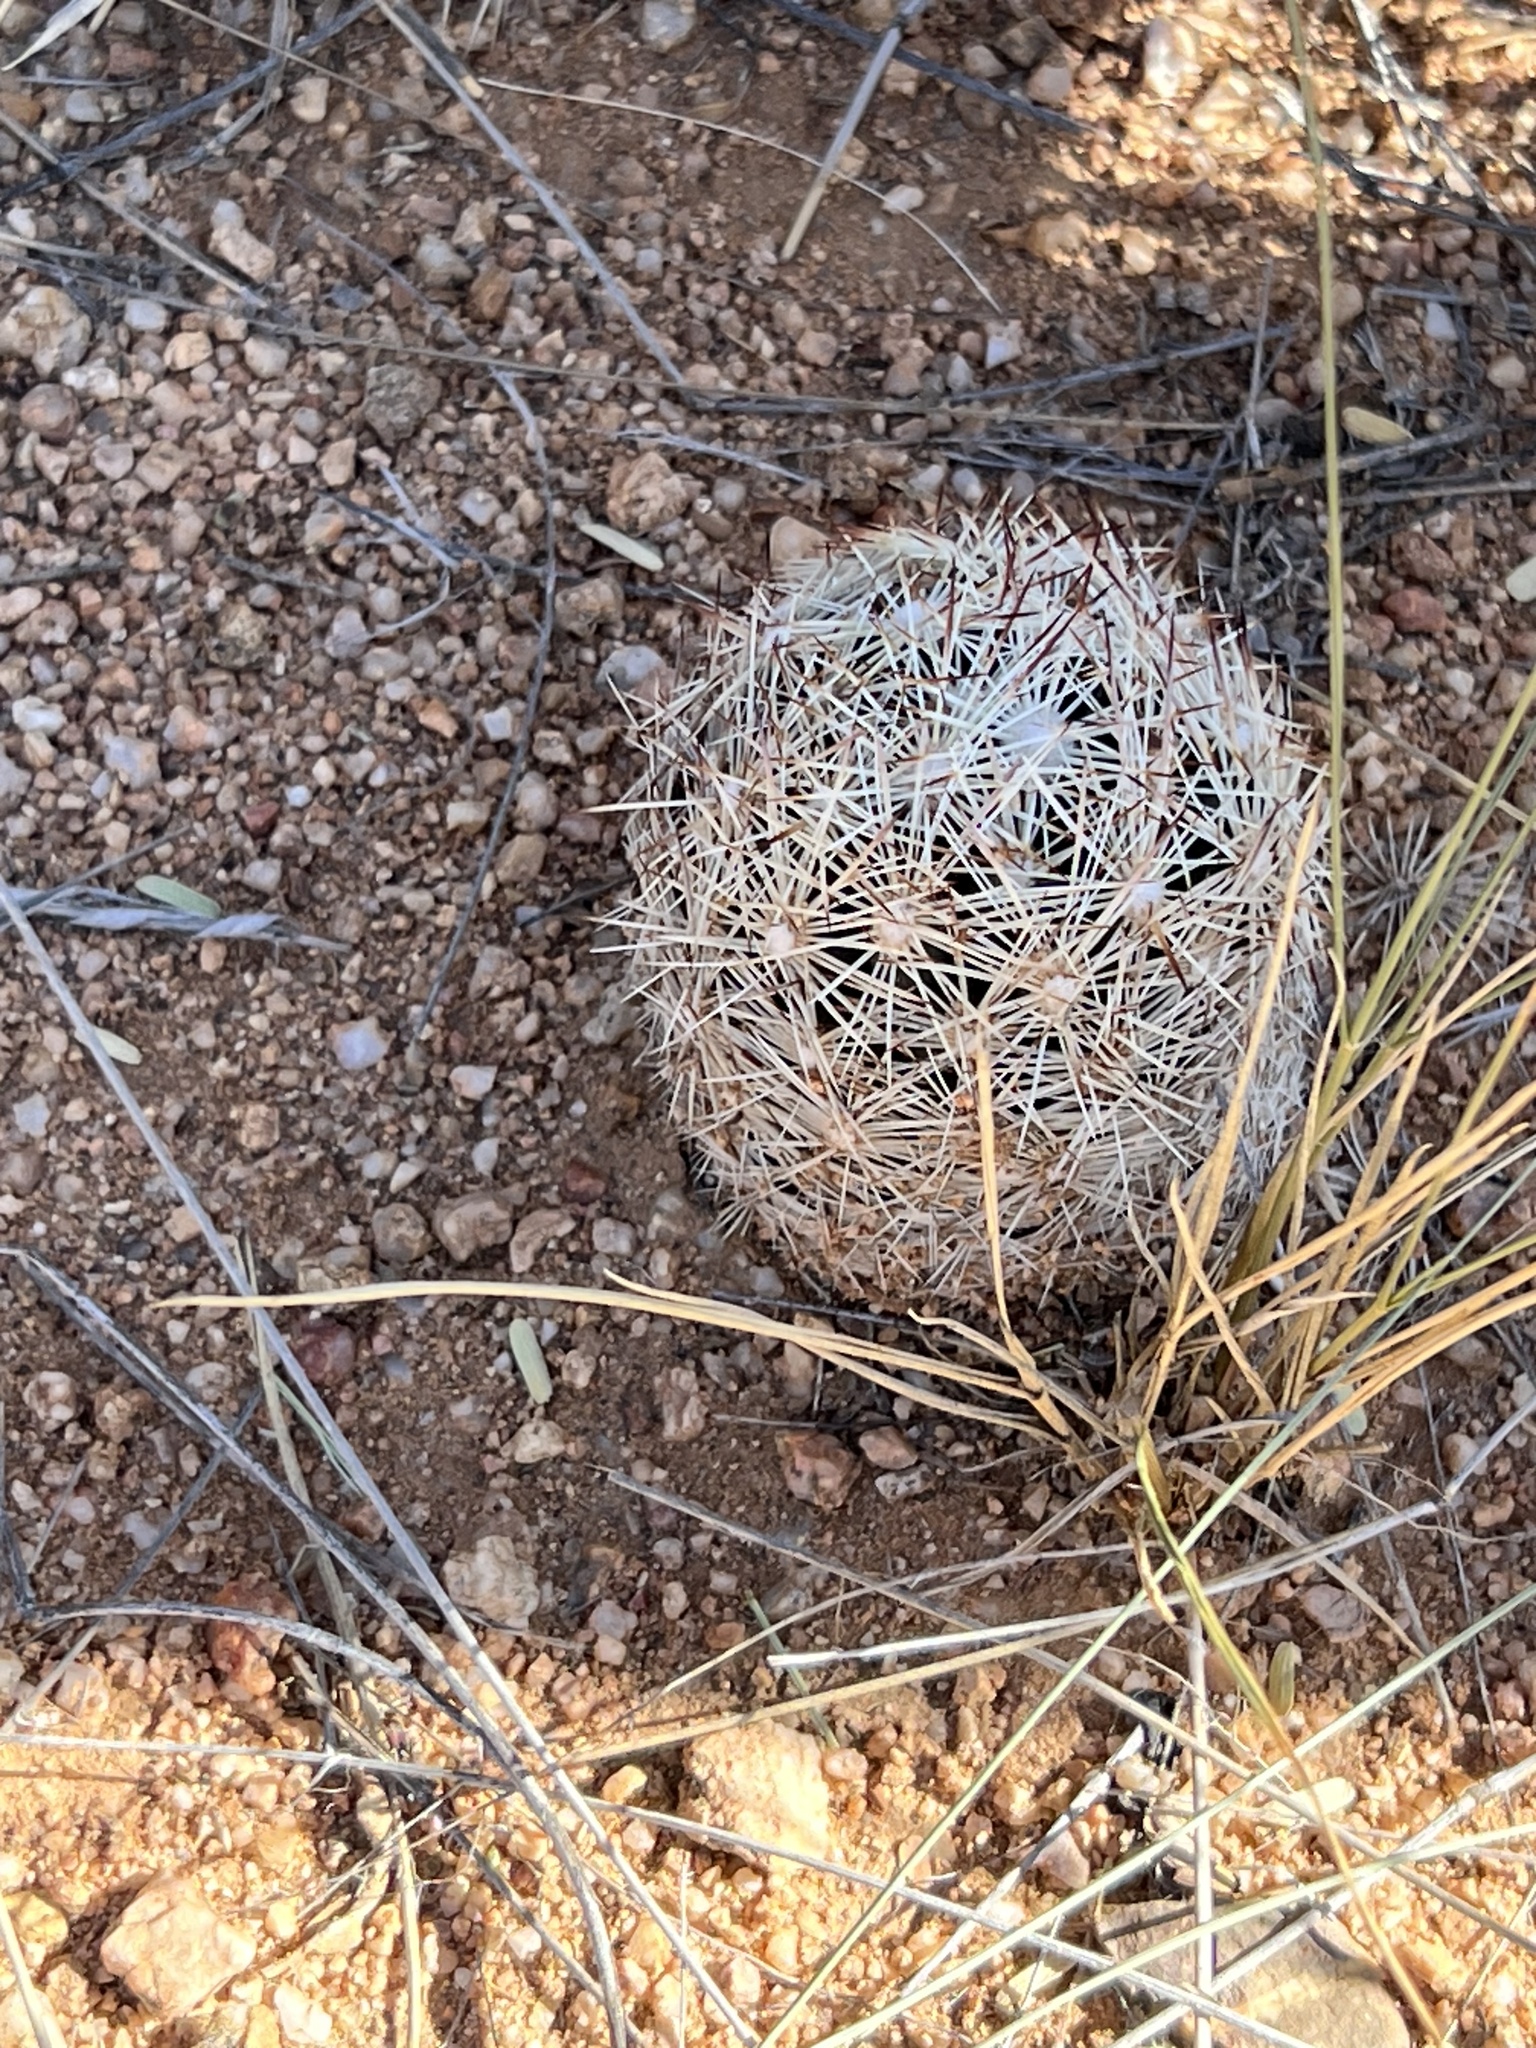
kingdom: Plantae
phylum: Tracheophyta
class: Magnoliopsida
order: Caryophyllales
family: Cactaceae
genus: Pelecyphora
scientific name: Pelecyphora vivipara
